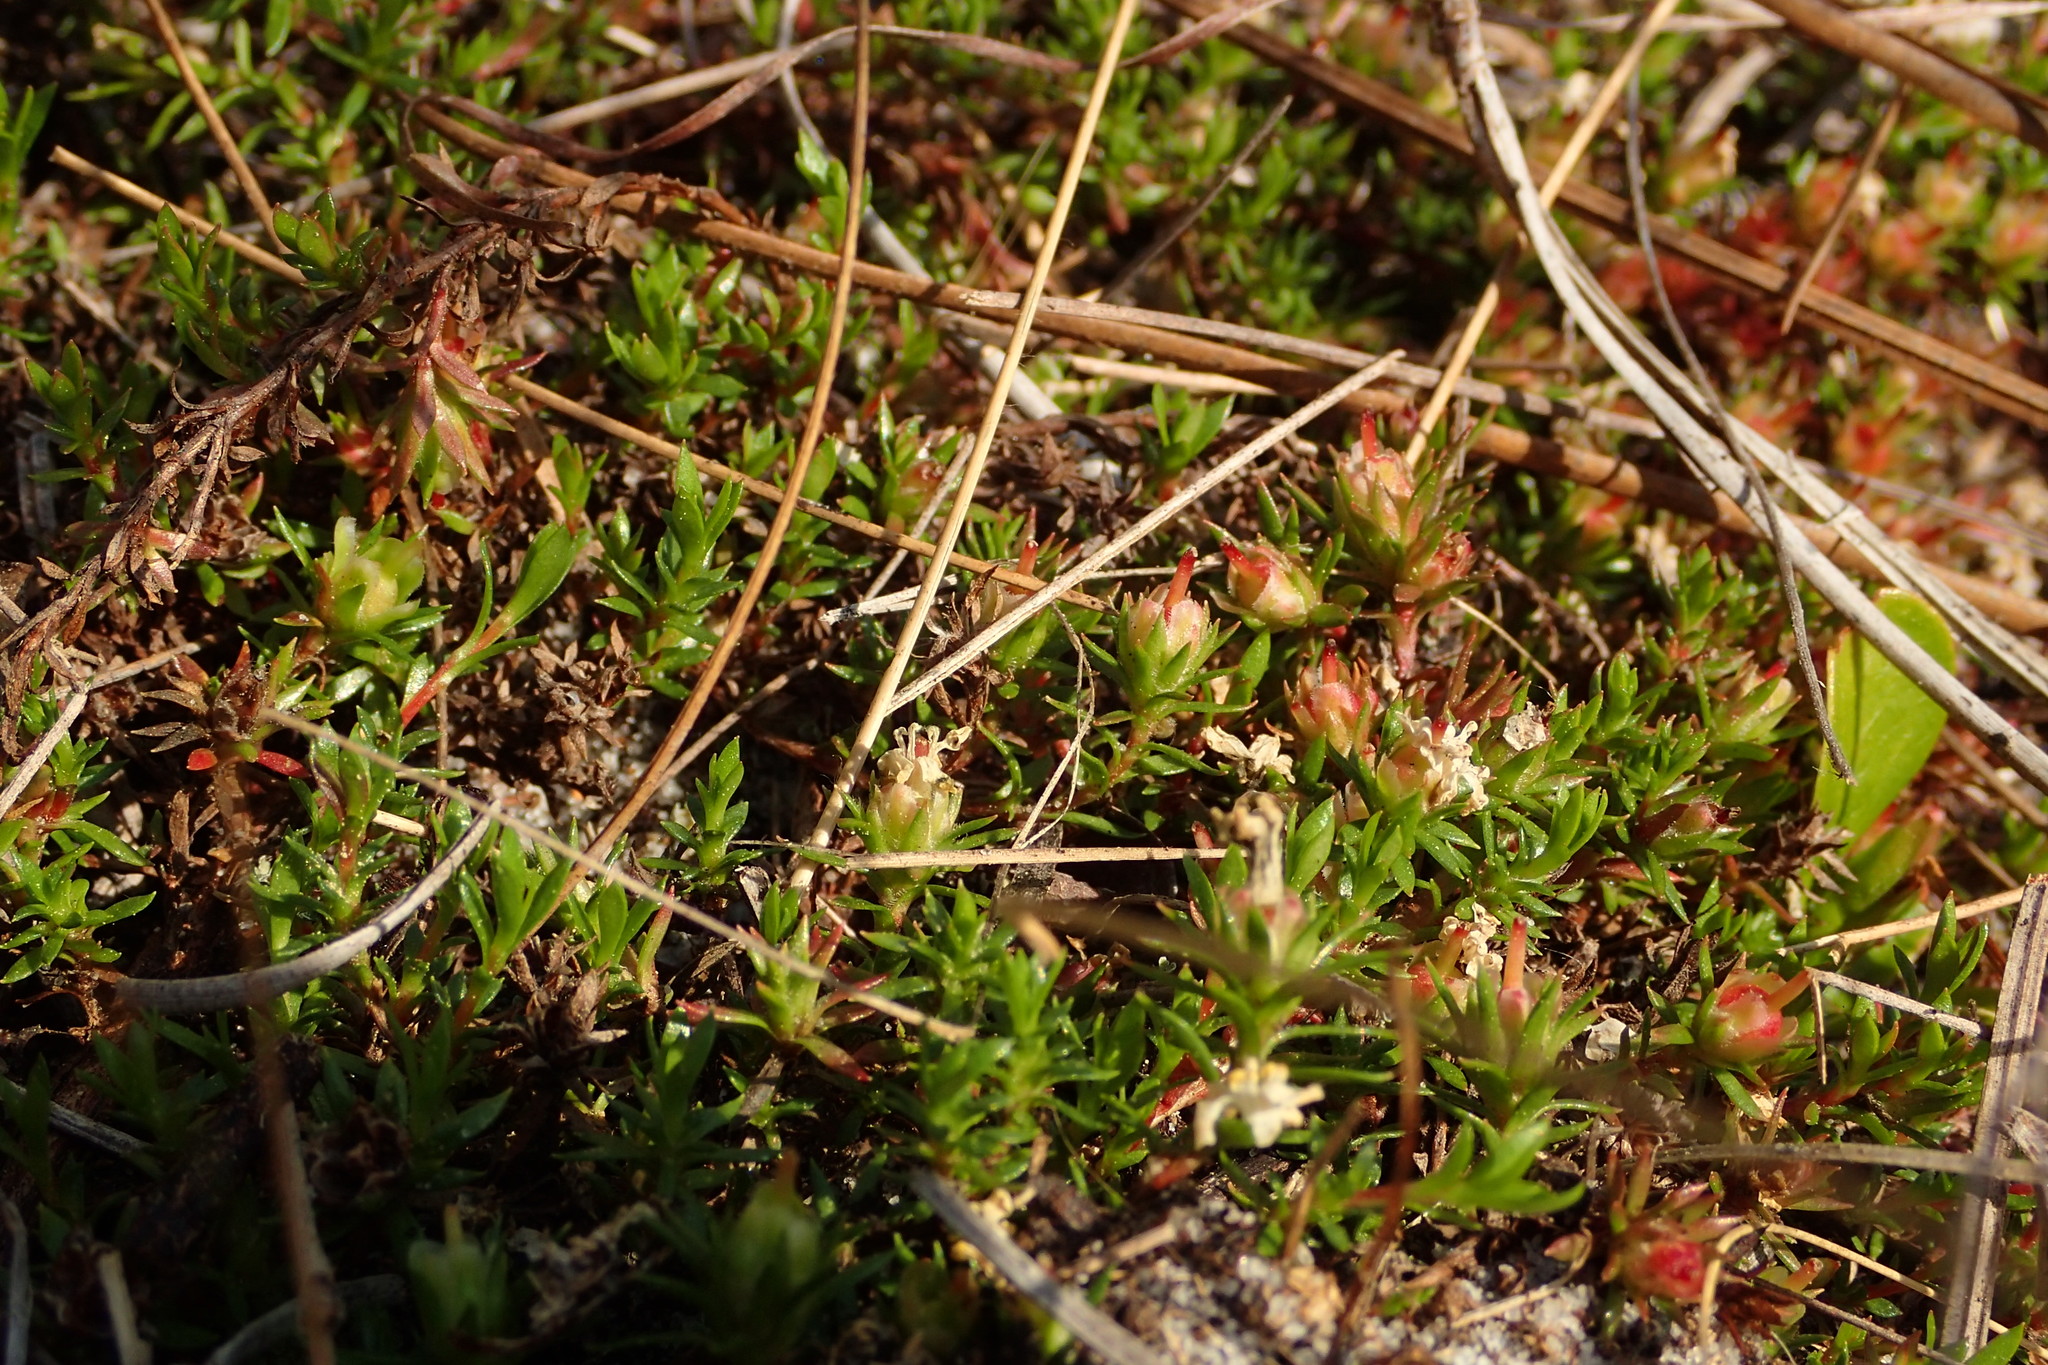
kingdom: Plantae
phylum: Tracheophyta
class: Magnoliopsida
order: Ericales
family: Diapensiaceae
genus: Pyxidanthera
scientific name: Pyxidanthera barbulata
